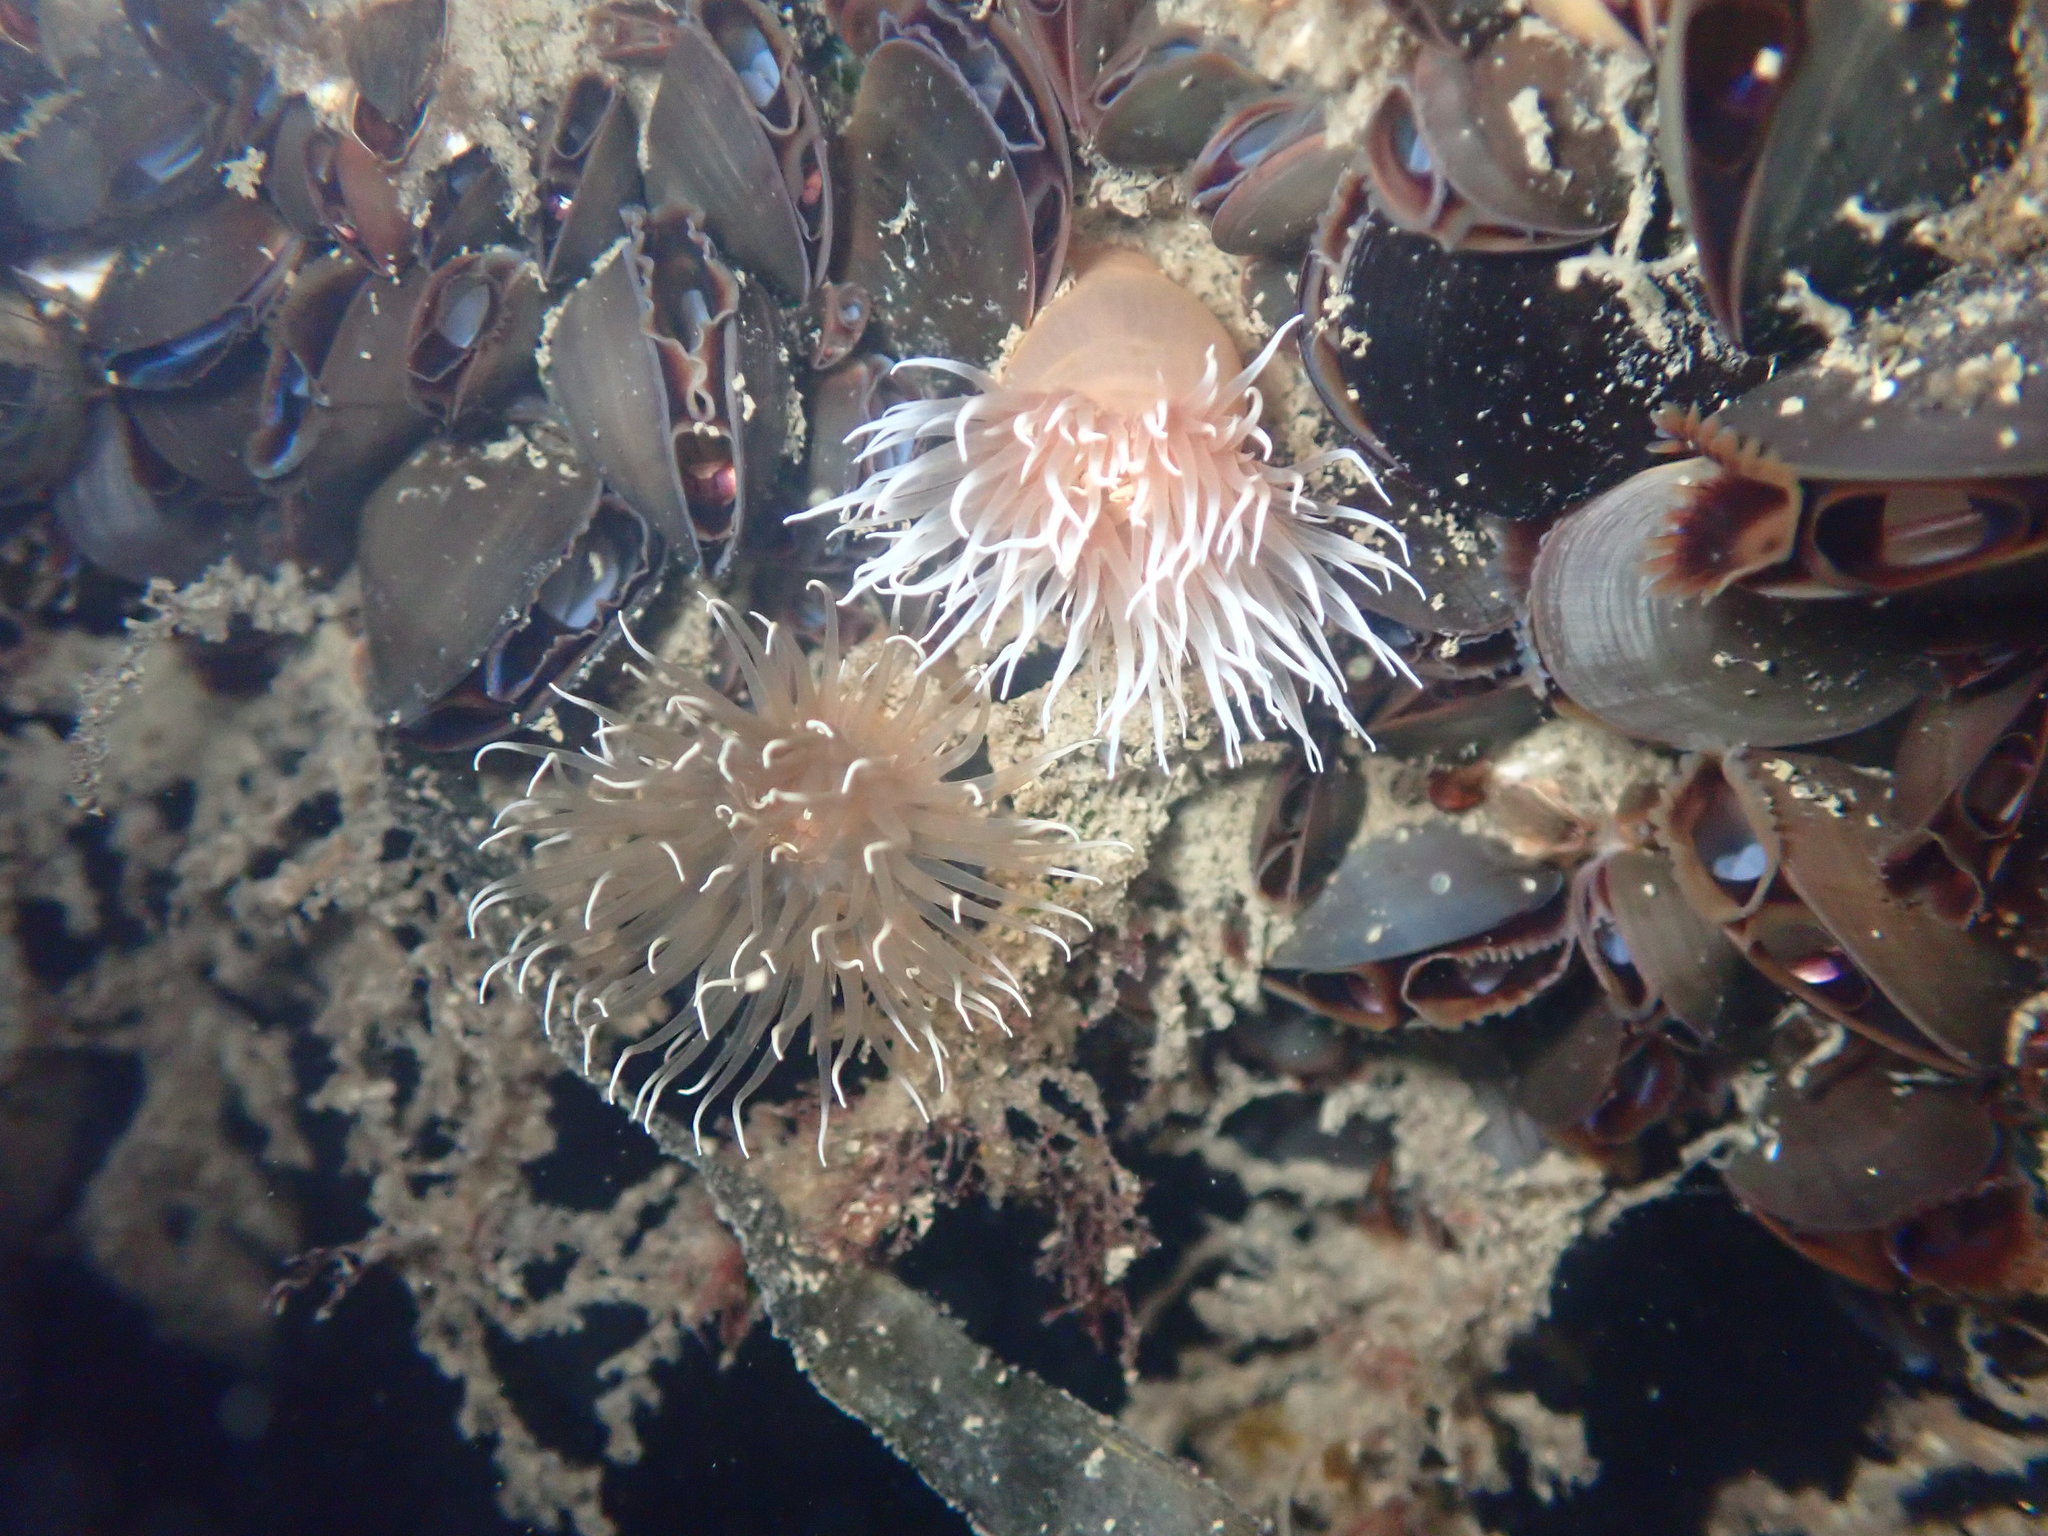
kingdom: Animalia
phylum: Cnidaria
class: Anthozoa
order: Actiniaria
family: Metridiidae
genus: Metridium
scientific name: Metridium senile
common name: Clonal plumose anemone
